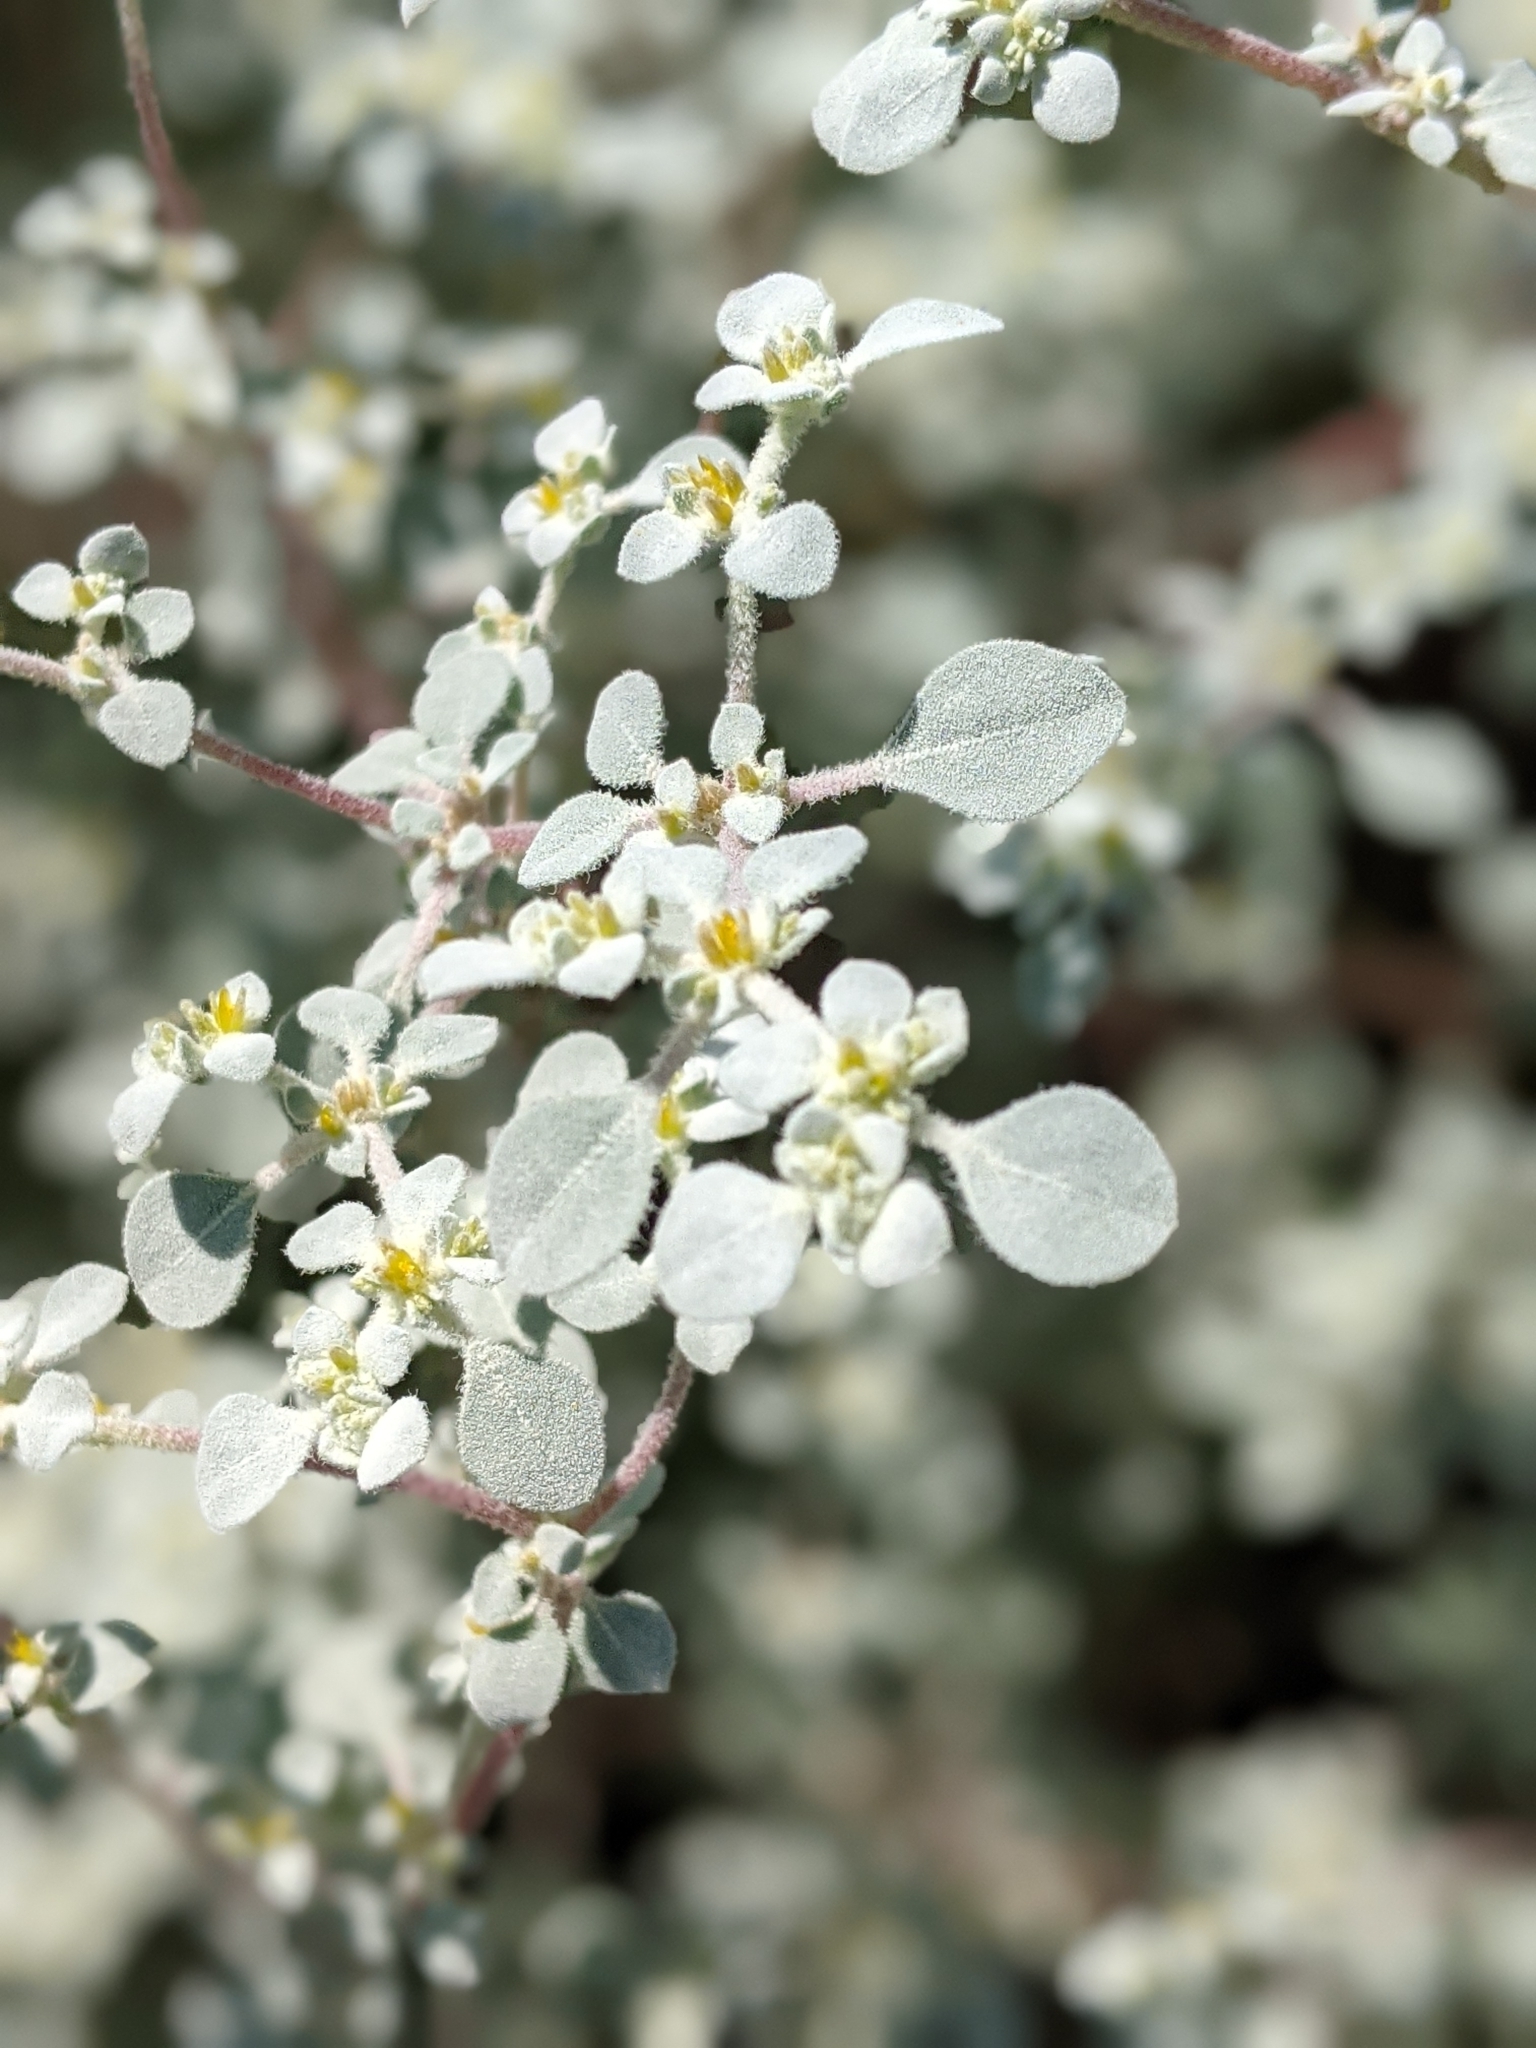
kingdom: Plantae
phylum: Tracheophyta
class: Magnoliopsida
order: Caryophyllales
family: Amaranthaceae
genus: Tidestromia
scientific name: Tidestromia lanuginosa
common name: Woolly tidestromia
